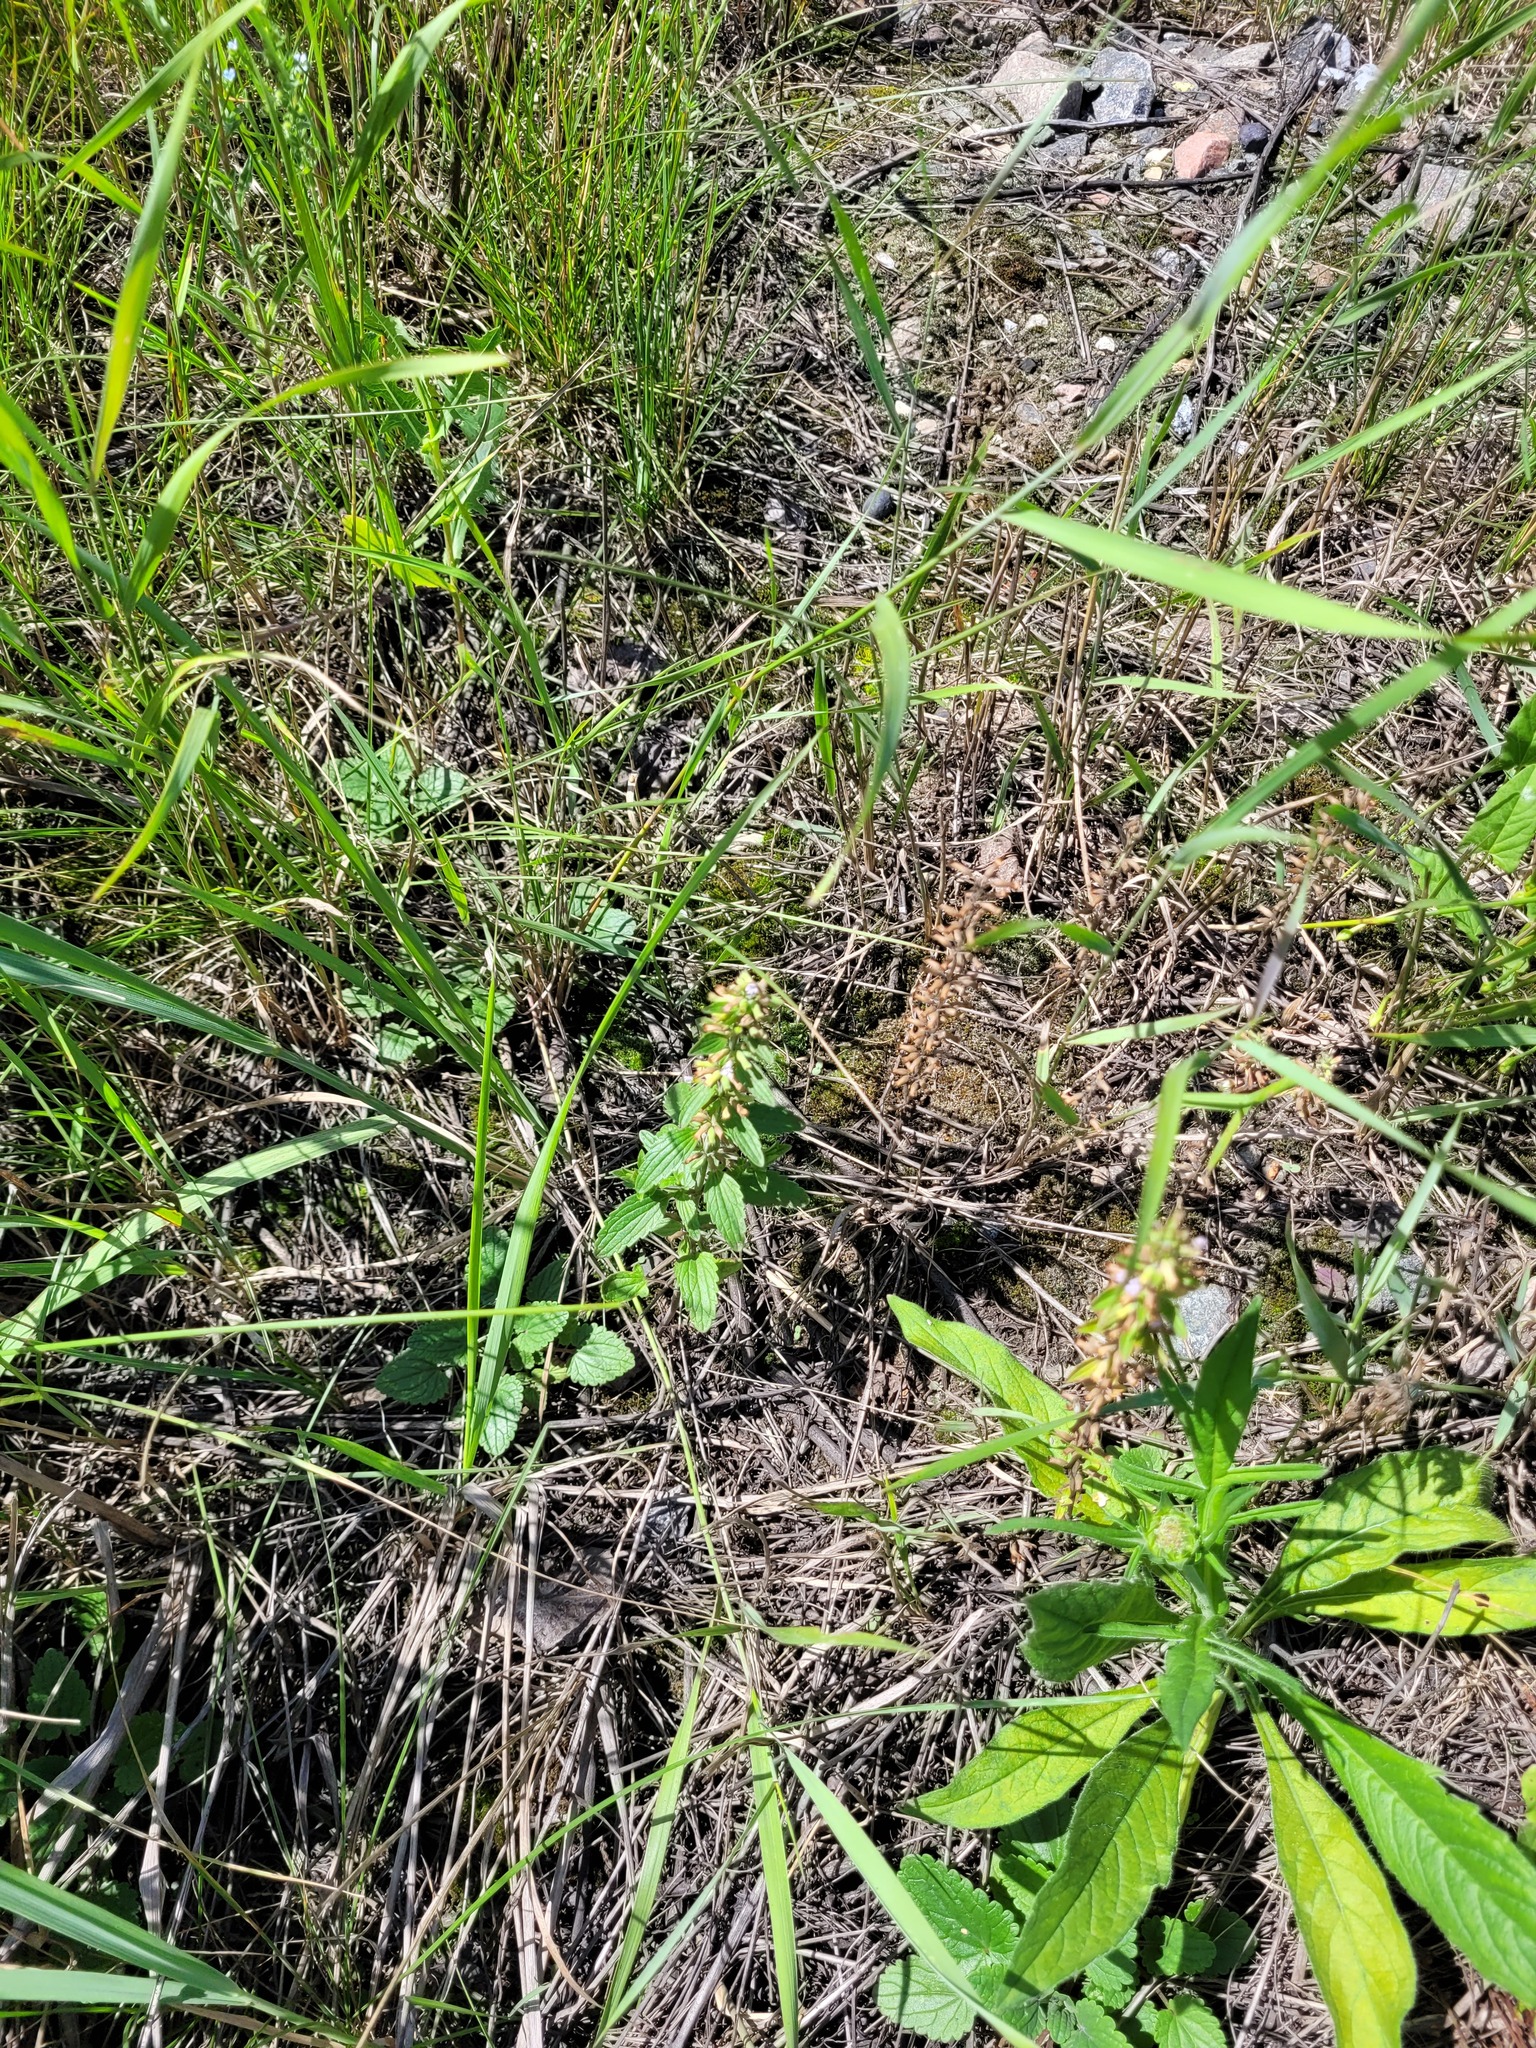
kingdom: Plantae
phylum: Tracheophyta
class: Magnoliopsida
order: Lamiales
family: Lamiaceae
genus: Dracocephalum
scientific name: Dracocephalum thymiflorum
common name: Thymeleaf dragonhead
